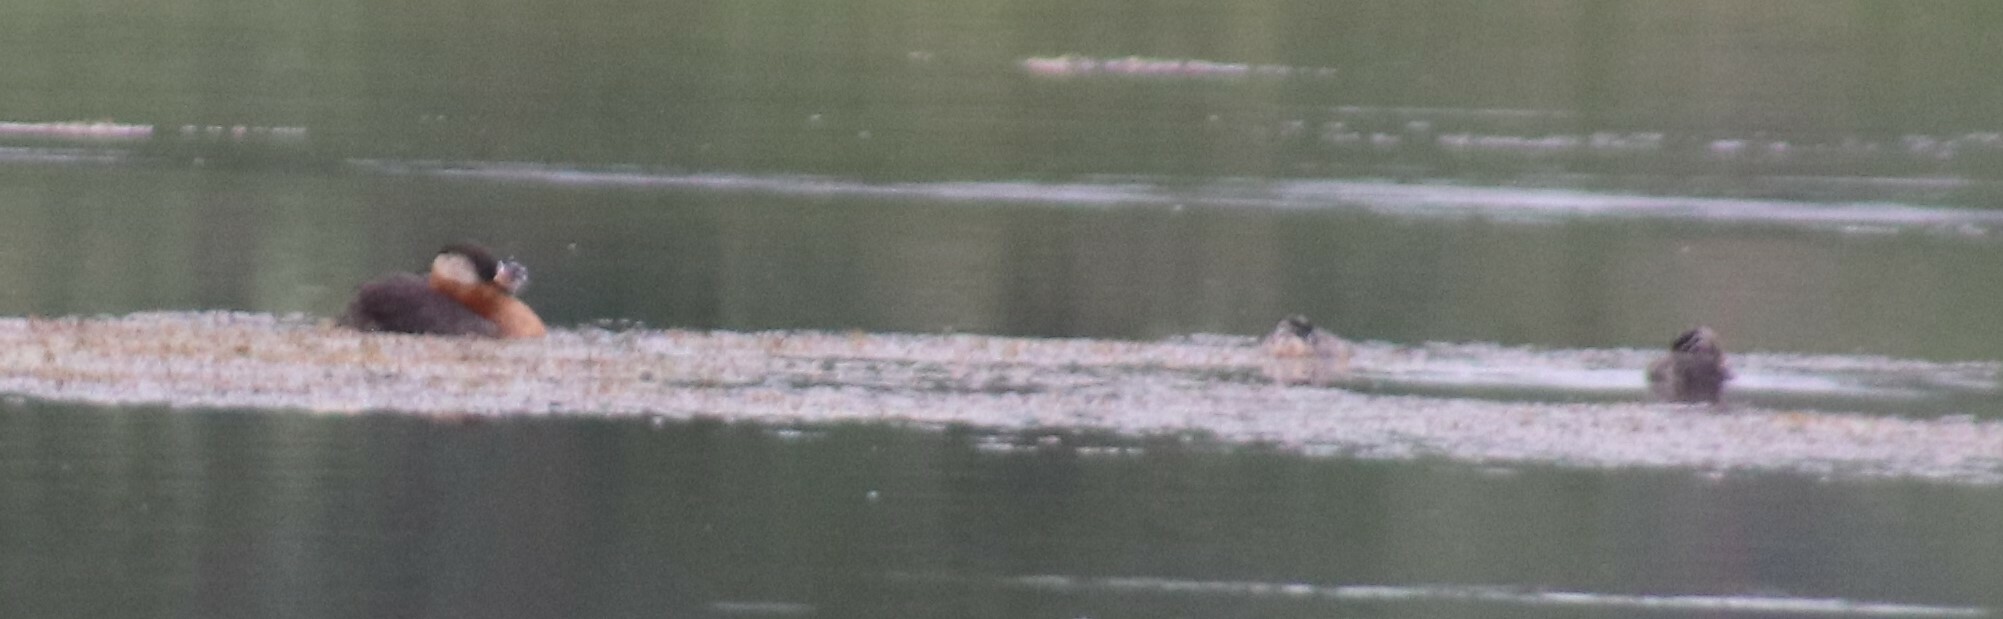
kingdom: Animalia
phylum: Chordata
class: Aves
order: Podicipediformes
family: Podicipedidae
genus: Podiceps
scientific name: Podiceps grisegena
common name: Red-necked grebe
